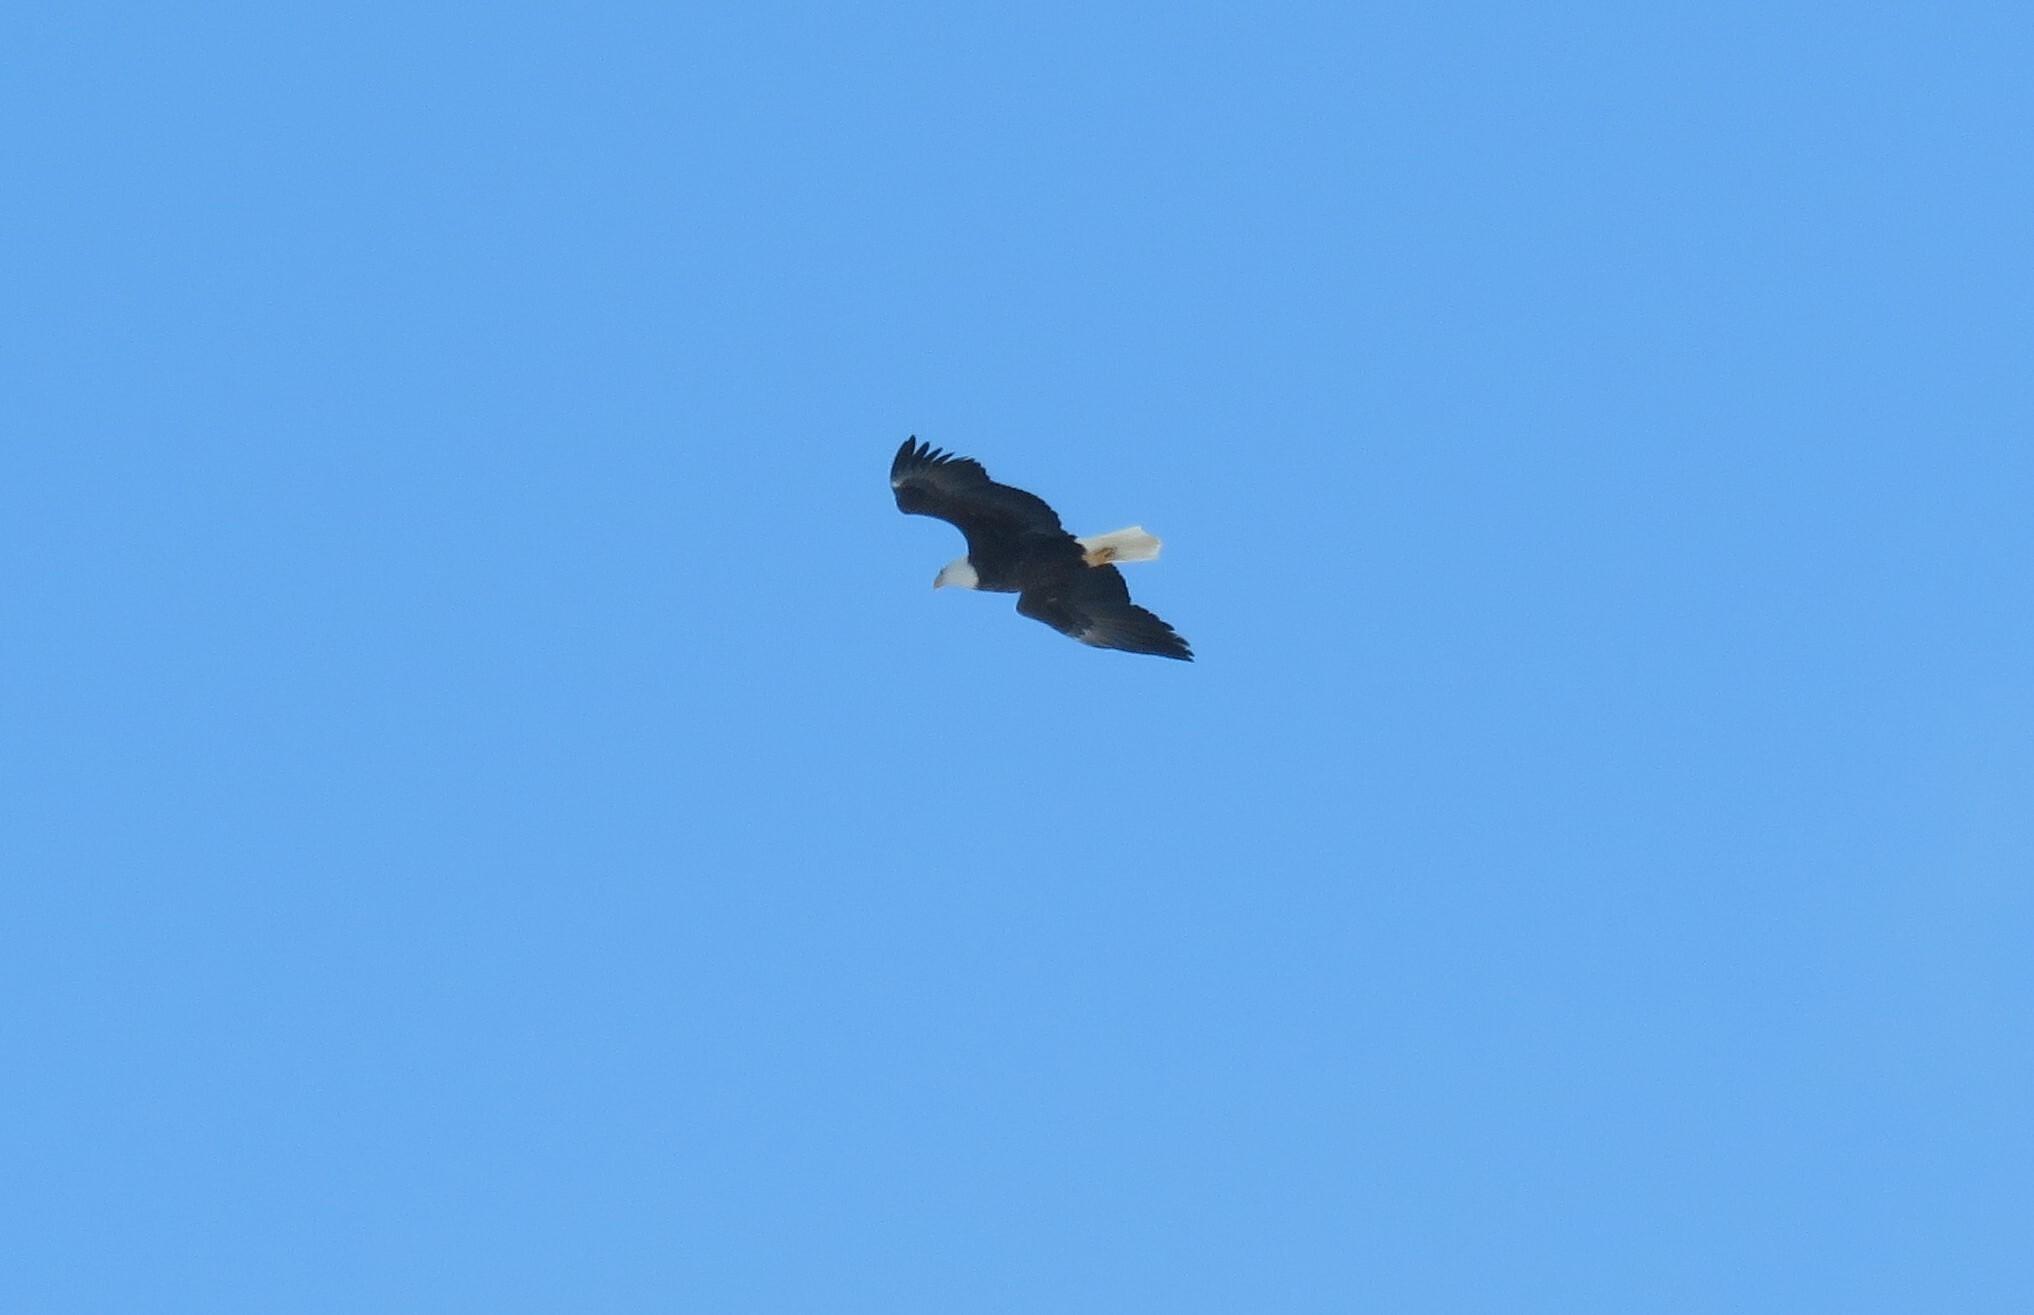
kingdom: Animalia
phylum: Chordata
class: Aves
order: Accipitriformes
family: Accipitridae
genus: Haliaeetus
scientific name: Haliaeetus leucocephalus
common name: Bald eagle
